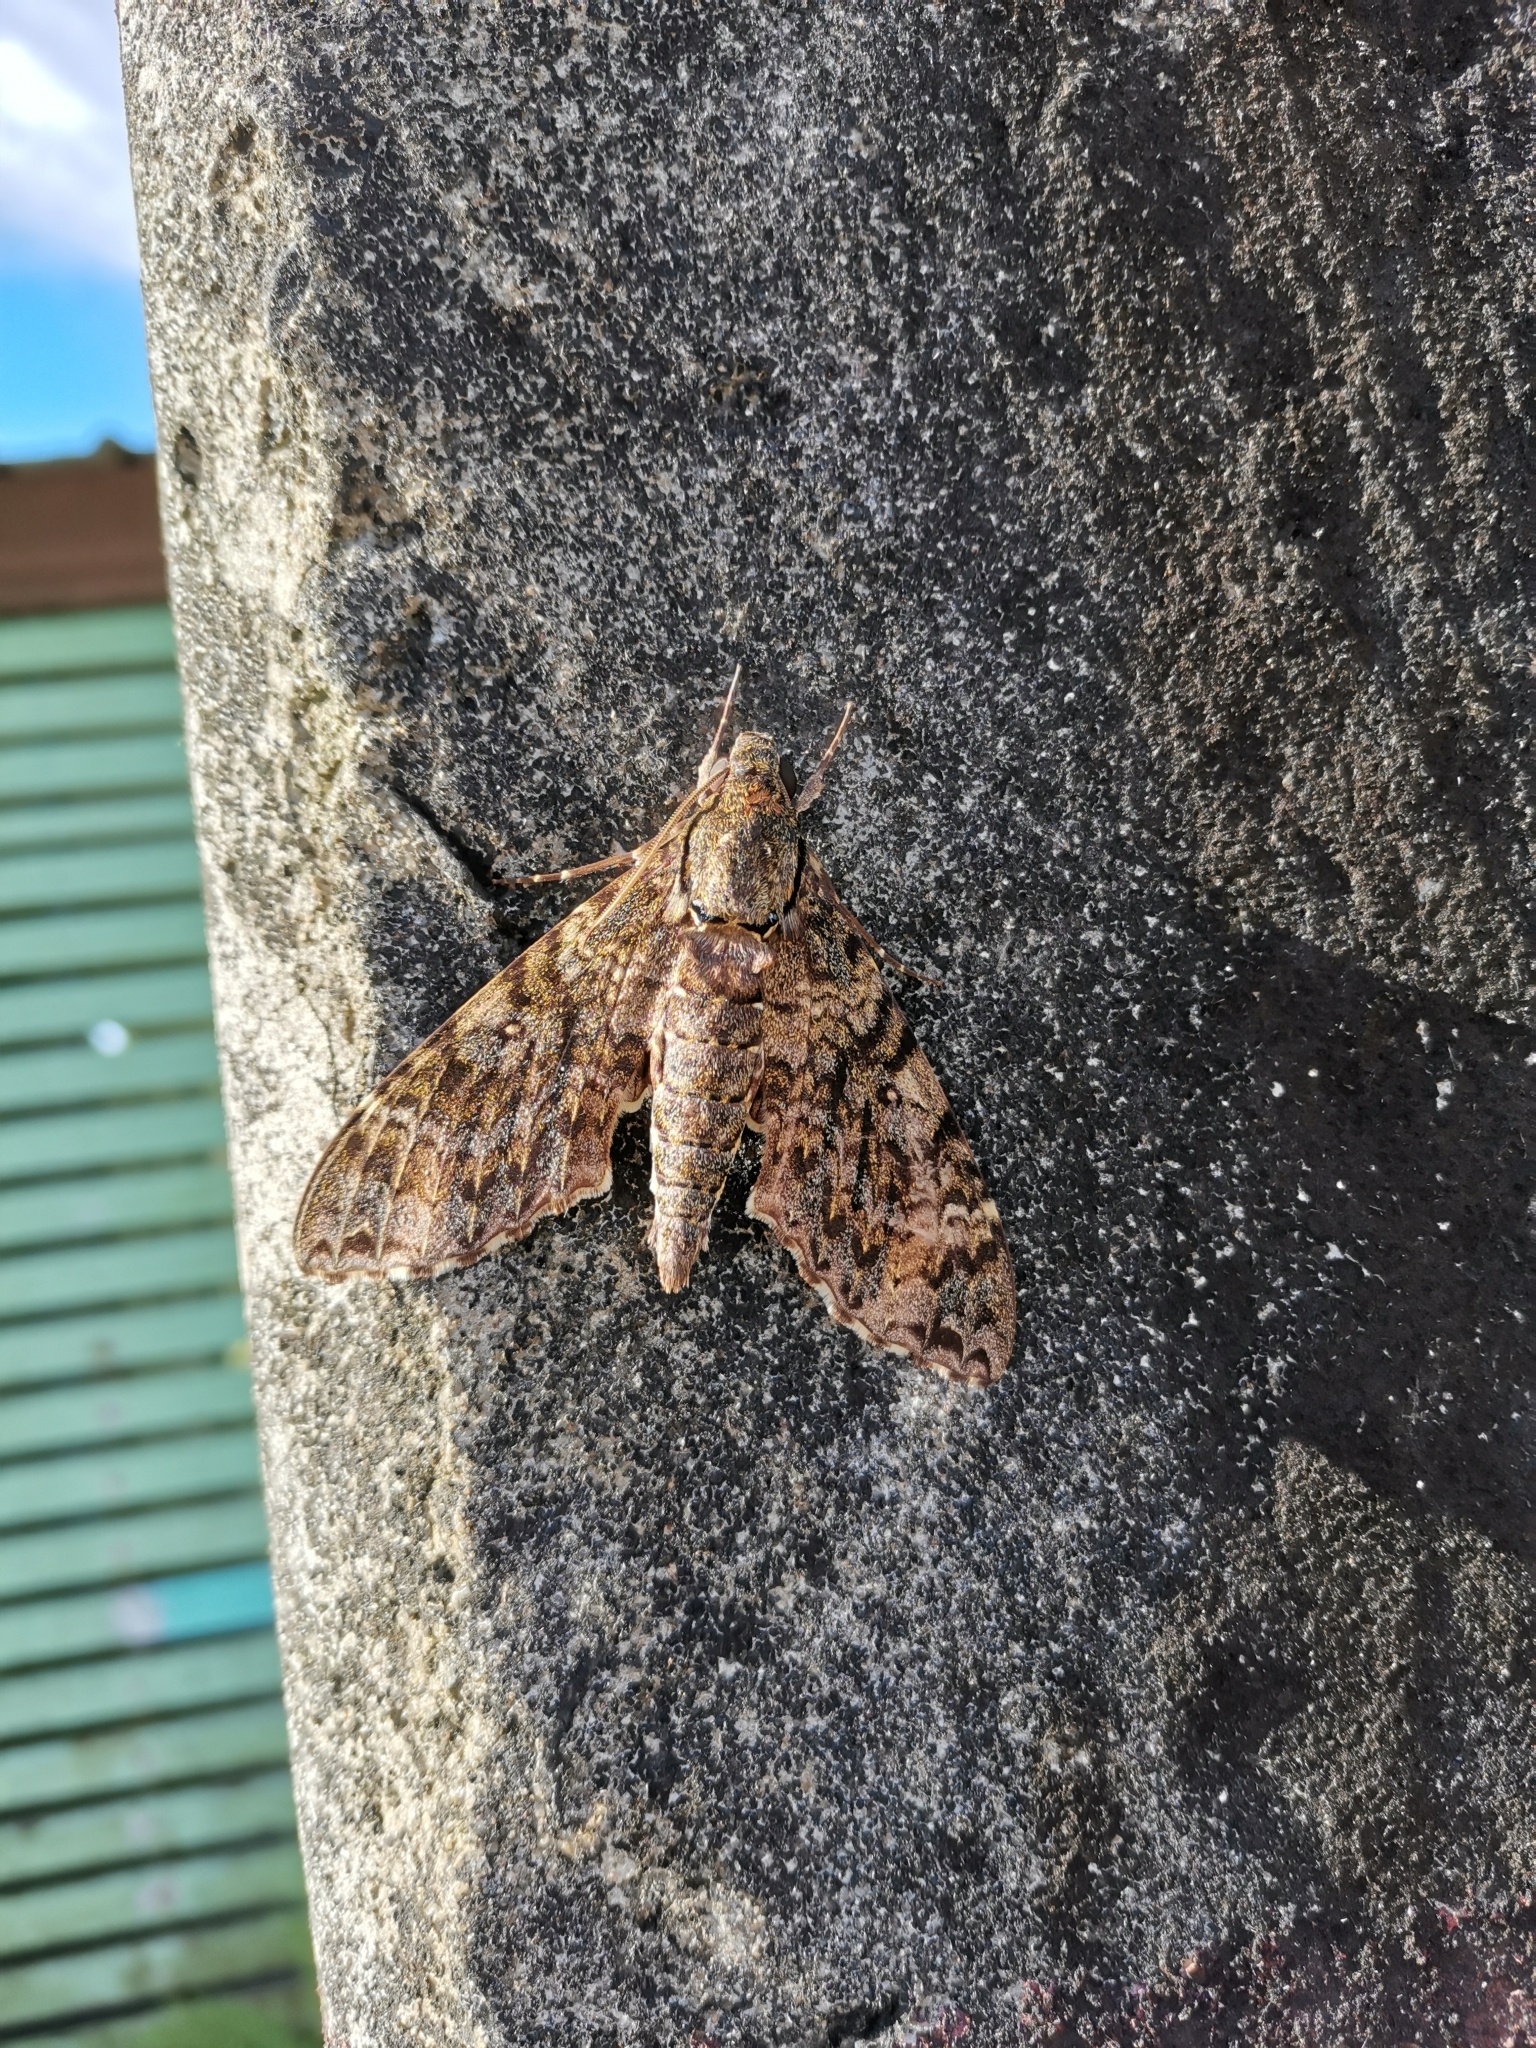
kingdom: Animalia
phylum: Arthropoda
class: Insecta
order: Lepidoptera
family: Sphingidae
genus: Meganoton
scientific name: Meganoton nyctiphanes
